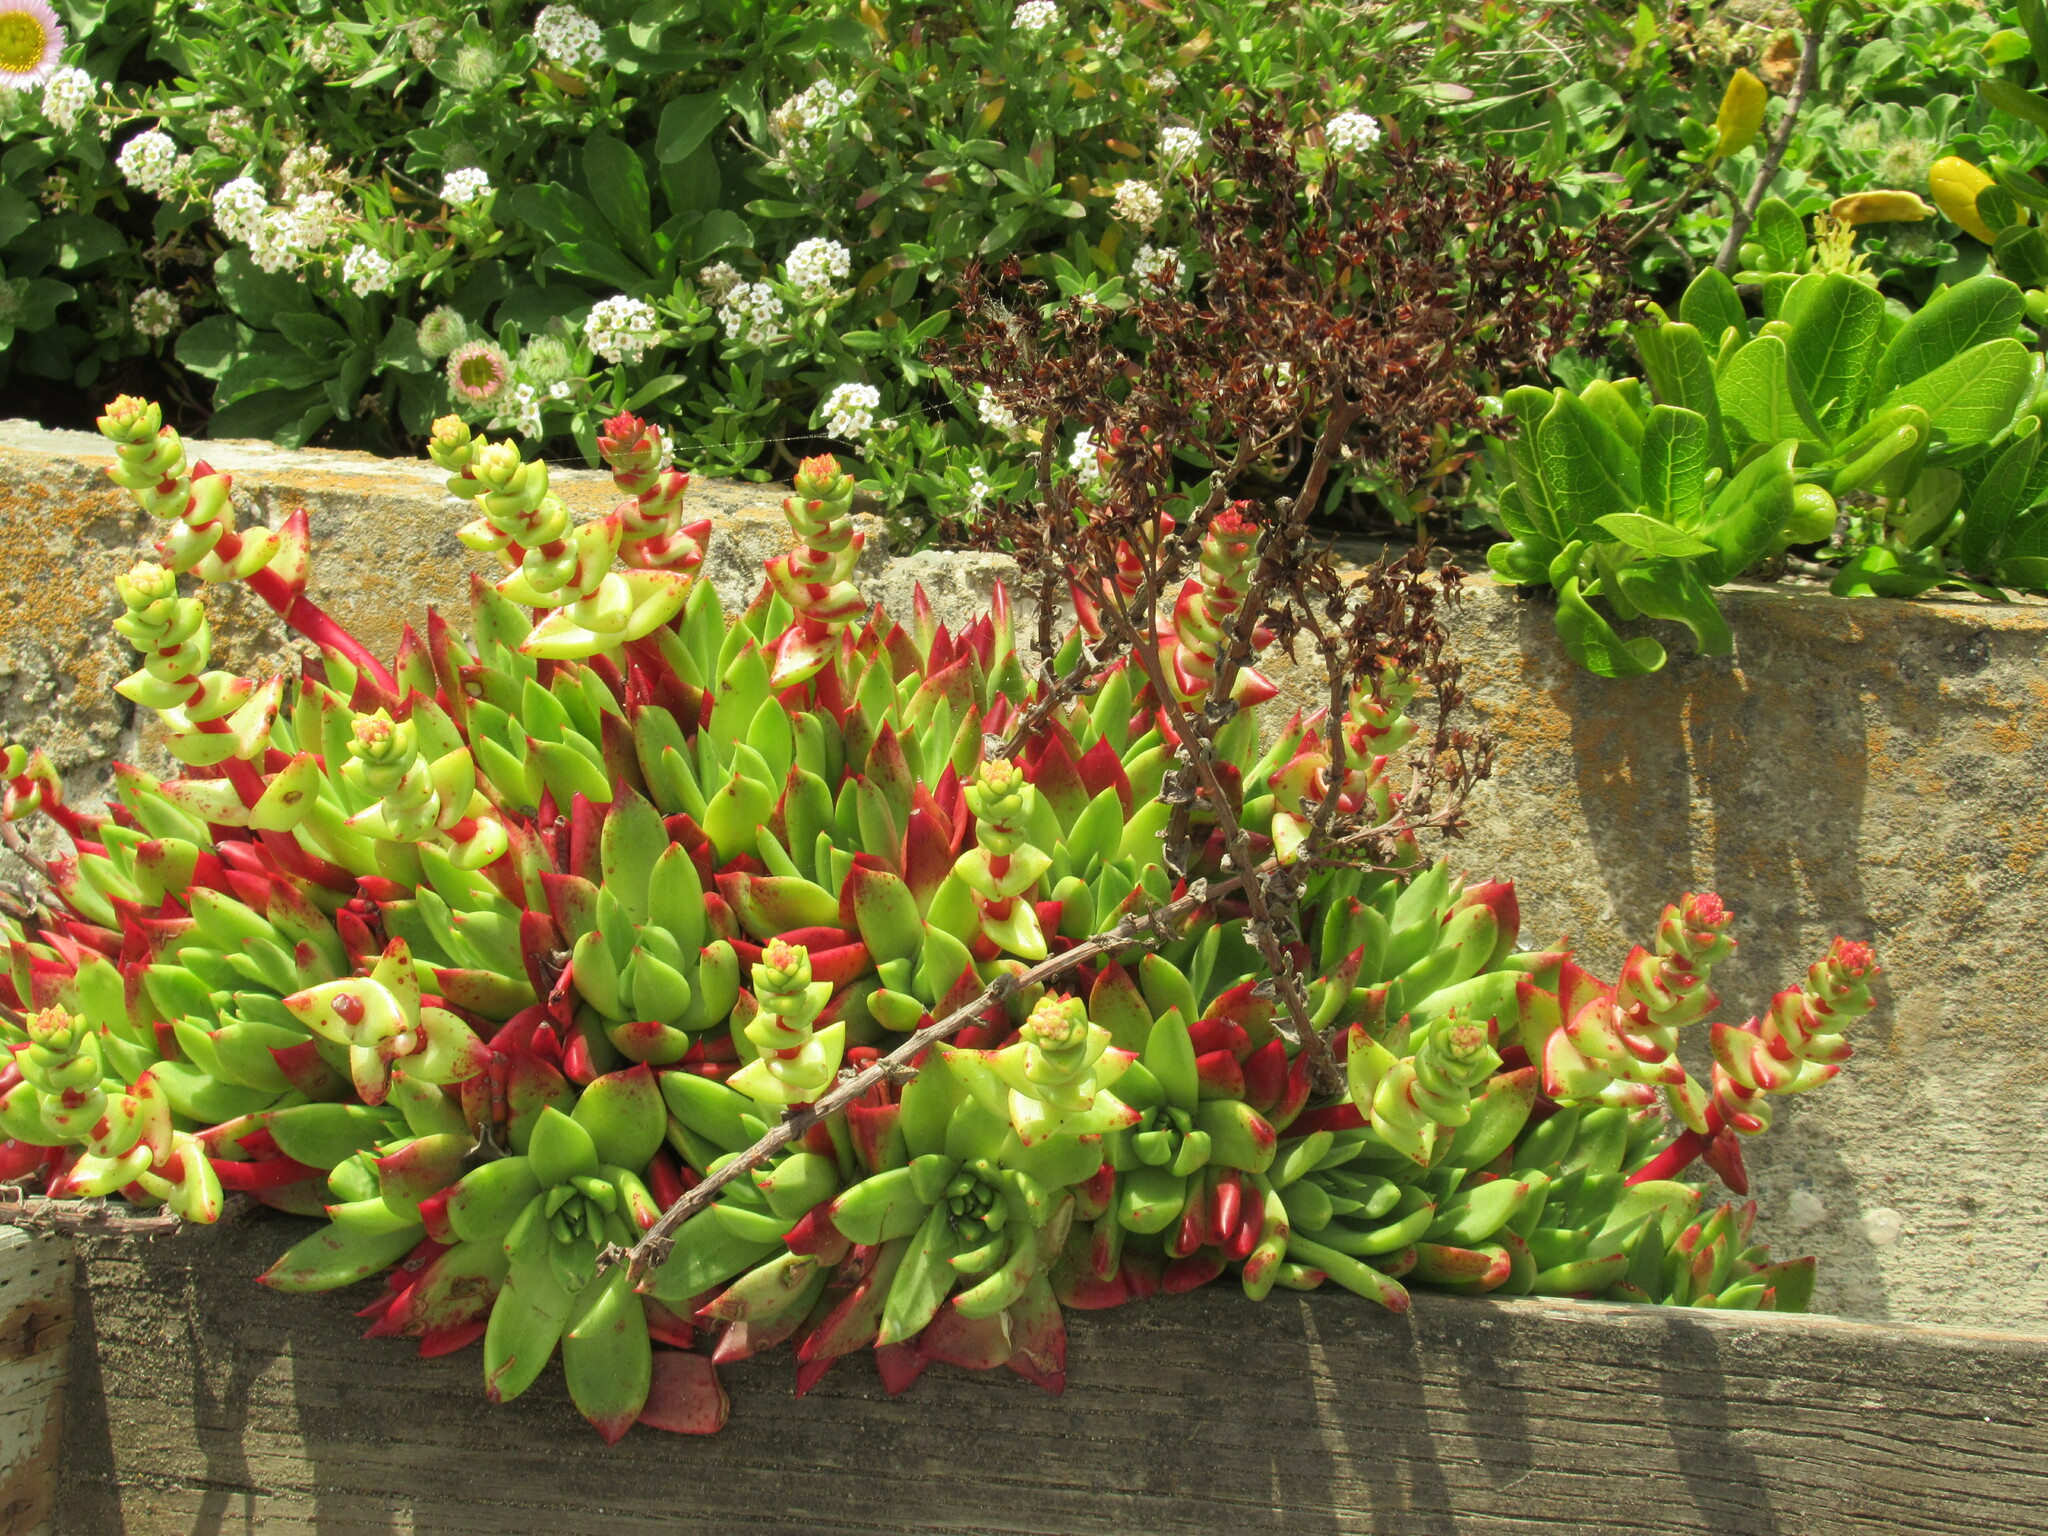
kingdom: Plantae
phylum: Tracheophyta
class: Magnoliopsida
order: Saxifragales
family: Crassulaceae
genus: Dudleya
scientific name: Dudleya farinosa
